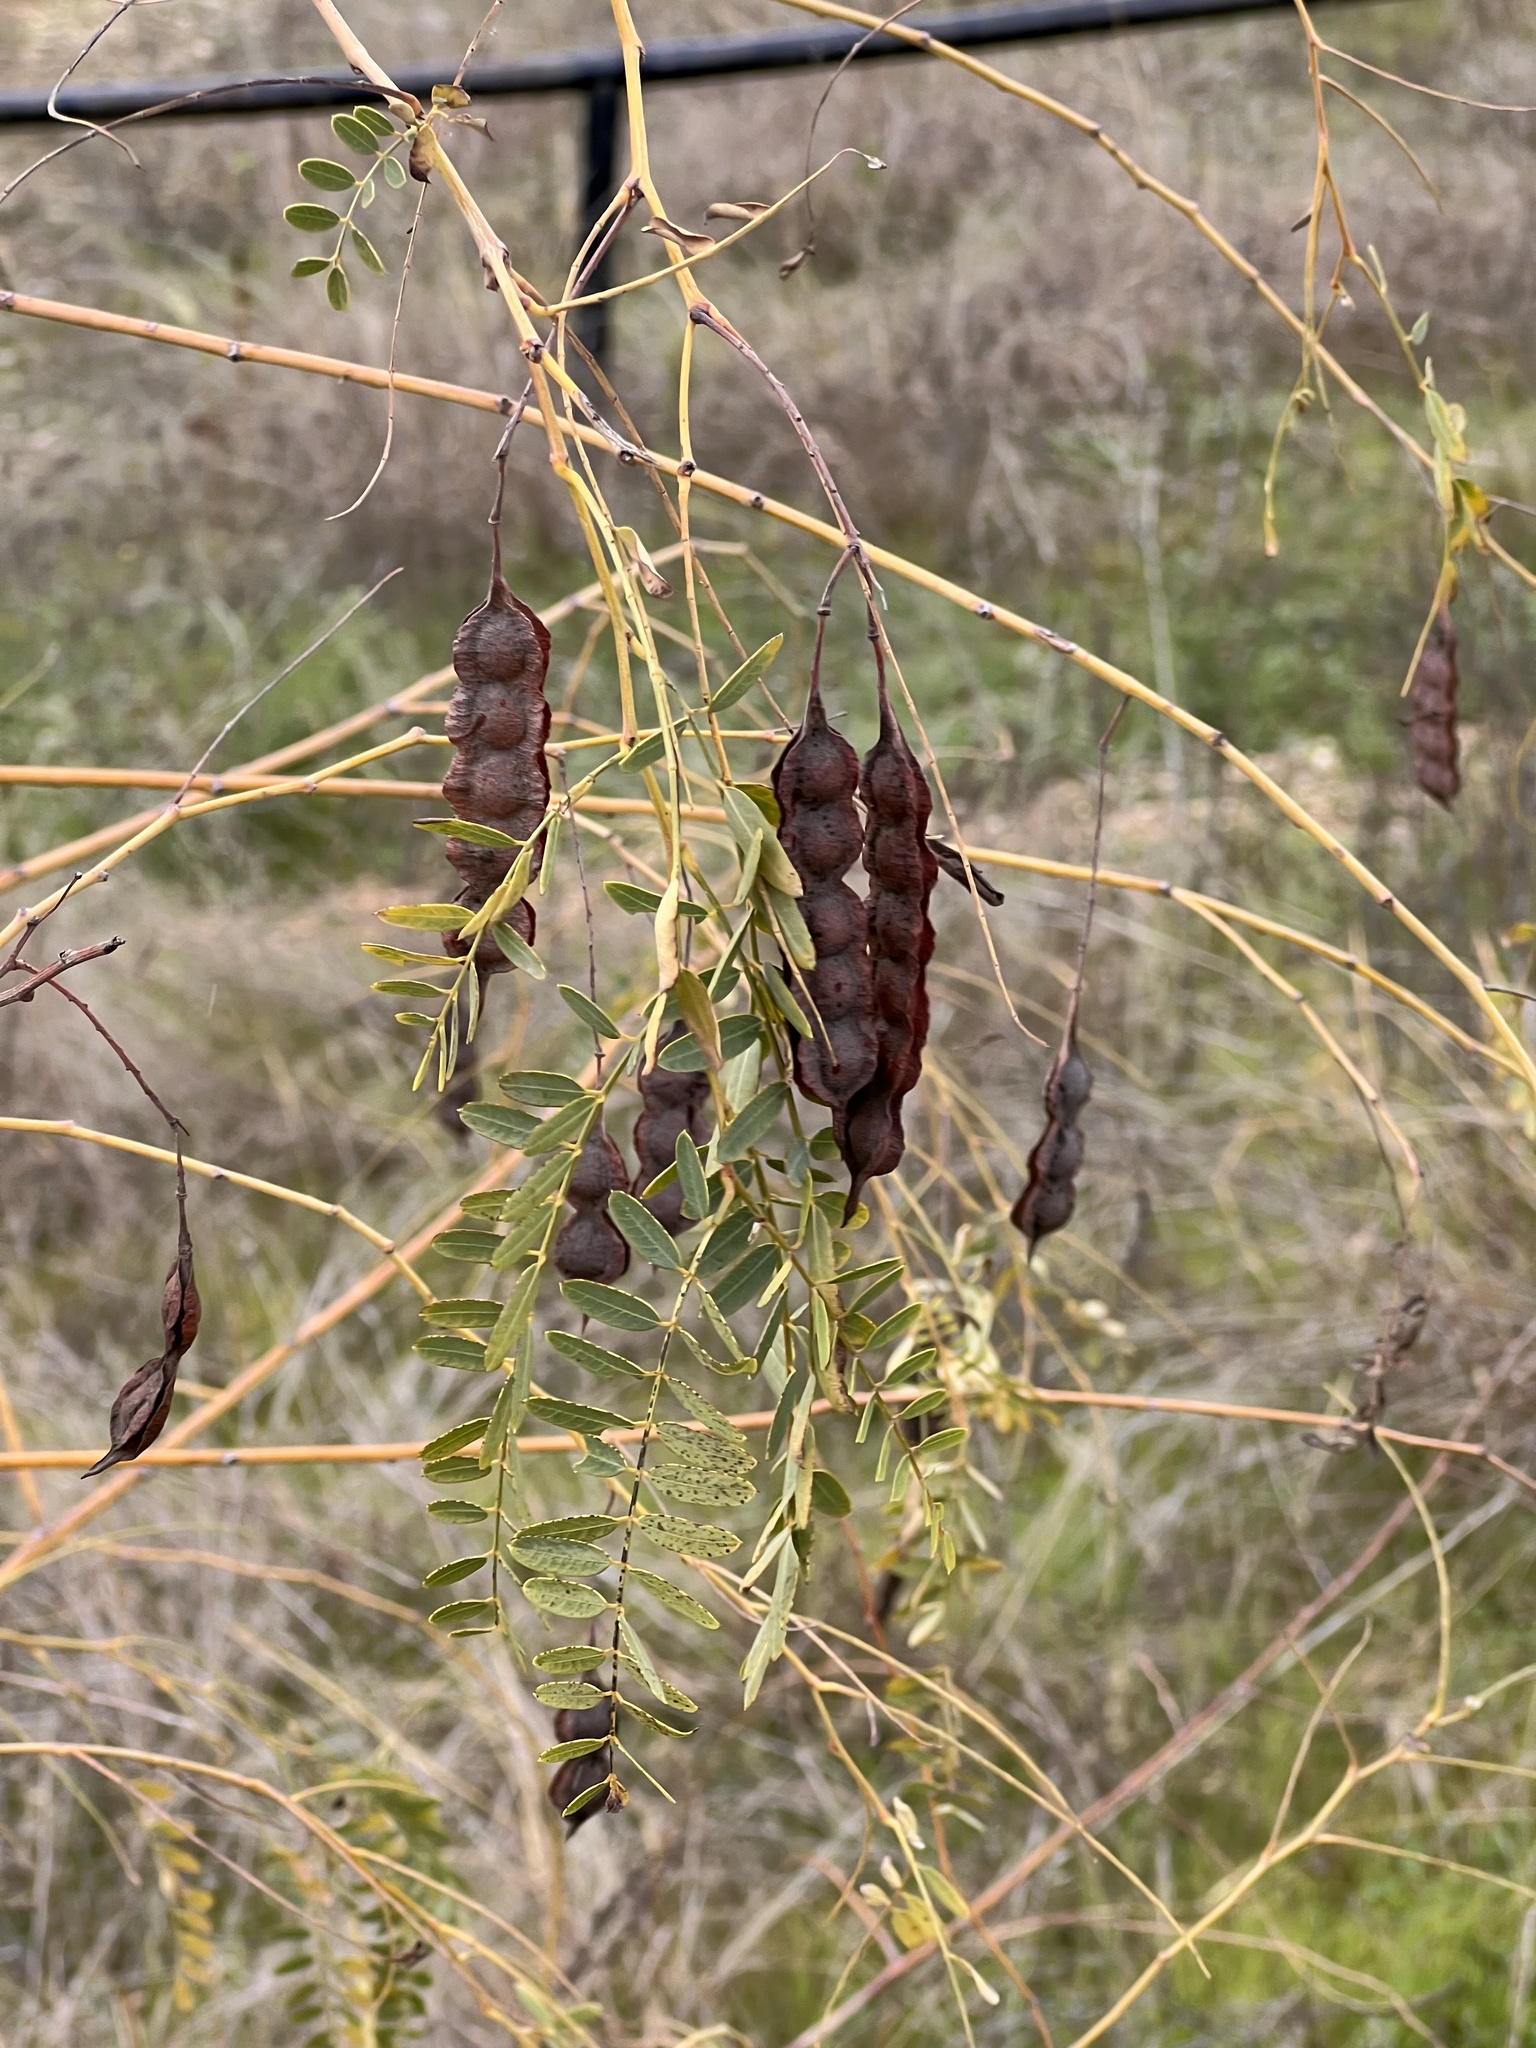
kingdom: Plantae
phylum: Tracheophyta
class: Magnoliopsida
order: Fabales
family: Fabaceae
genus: Sesbania
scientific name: Sesbania drummondii
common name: Poison-bean
